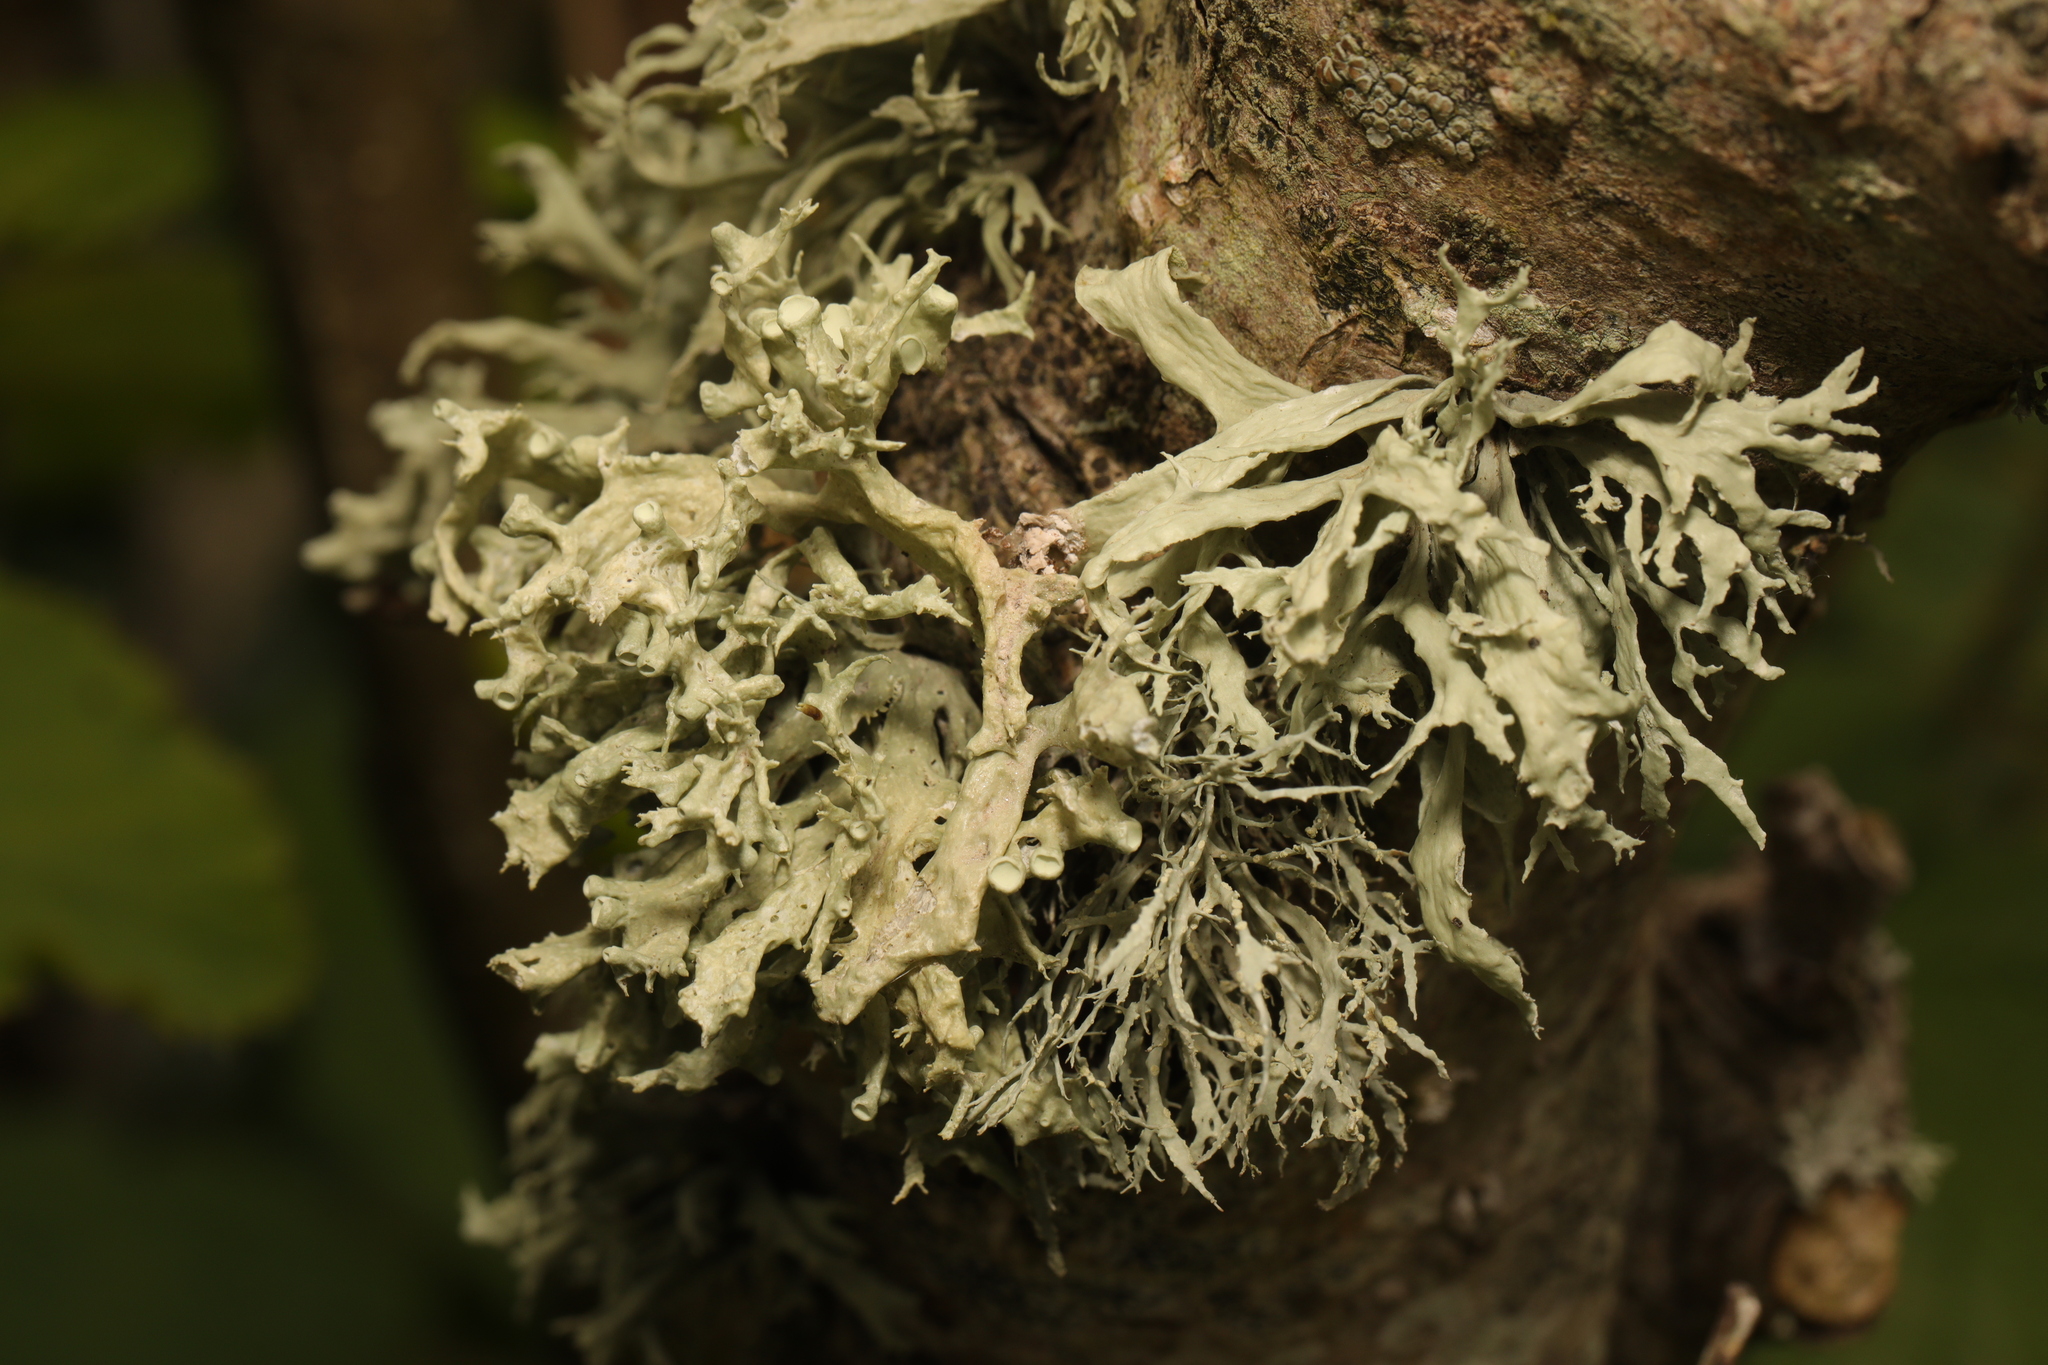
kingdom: Fungi
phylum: Ascomycota
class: Lecanoromycetes
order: Lecanorales
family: Ramalinaceae
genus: Ramalina
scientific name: Ramalina farinacea
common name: Farinose cartilage lichen
